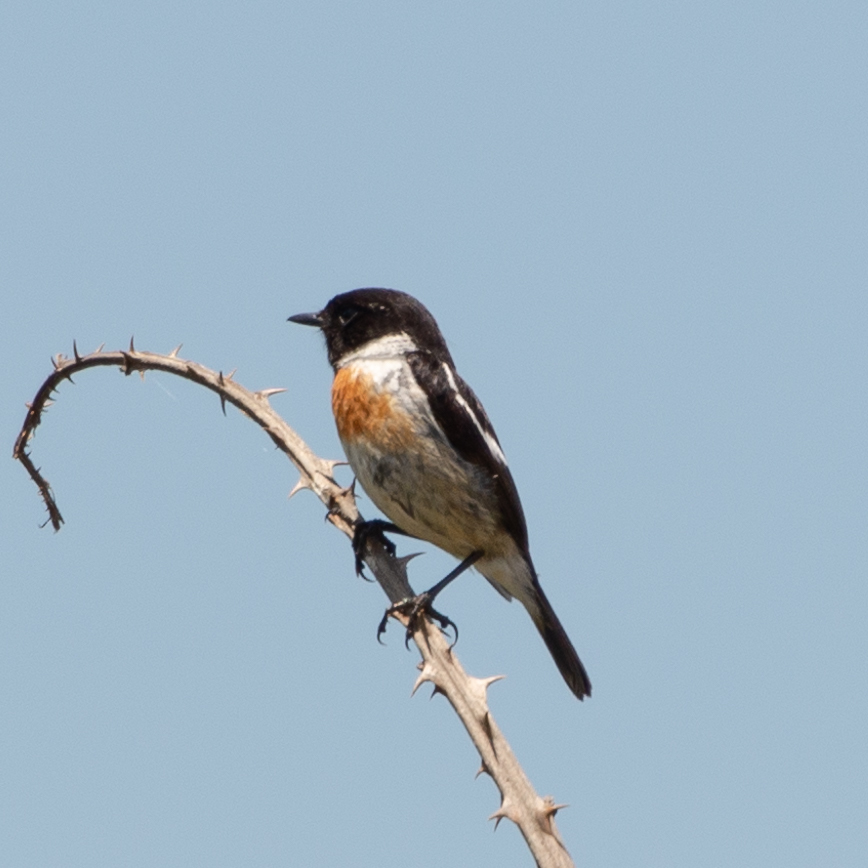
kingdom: Animalia
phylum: Chordata
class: Aves
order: Passeriformes
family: Muscicapidae
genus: Saxicola
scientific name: Saxicola rubicola
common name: European stonechat
